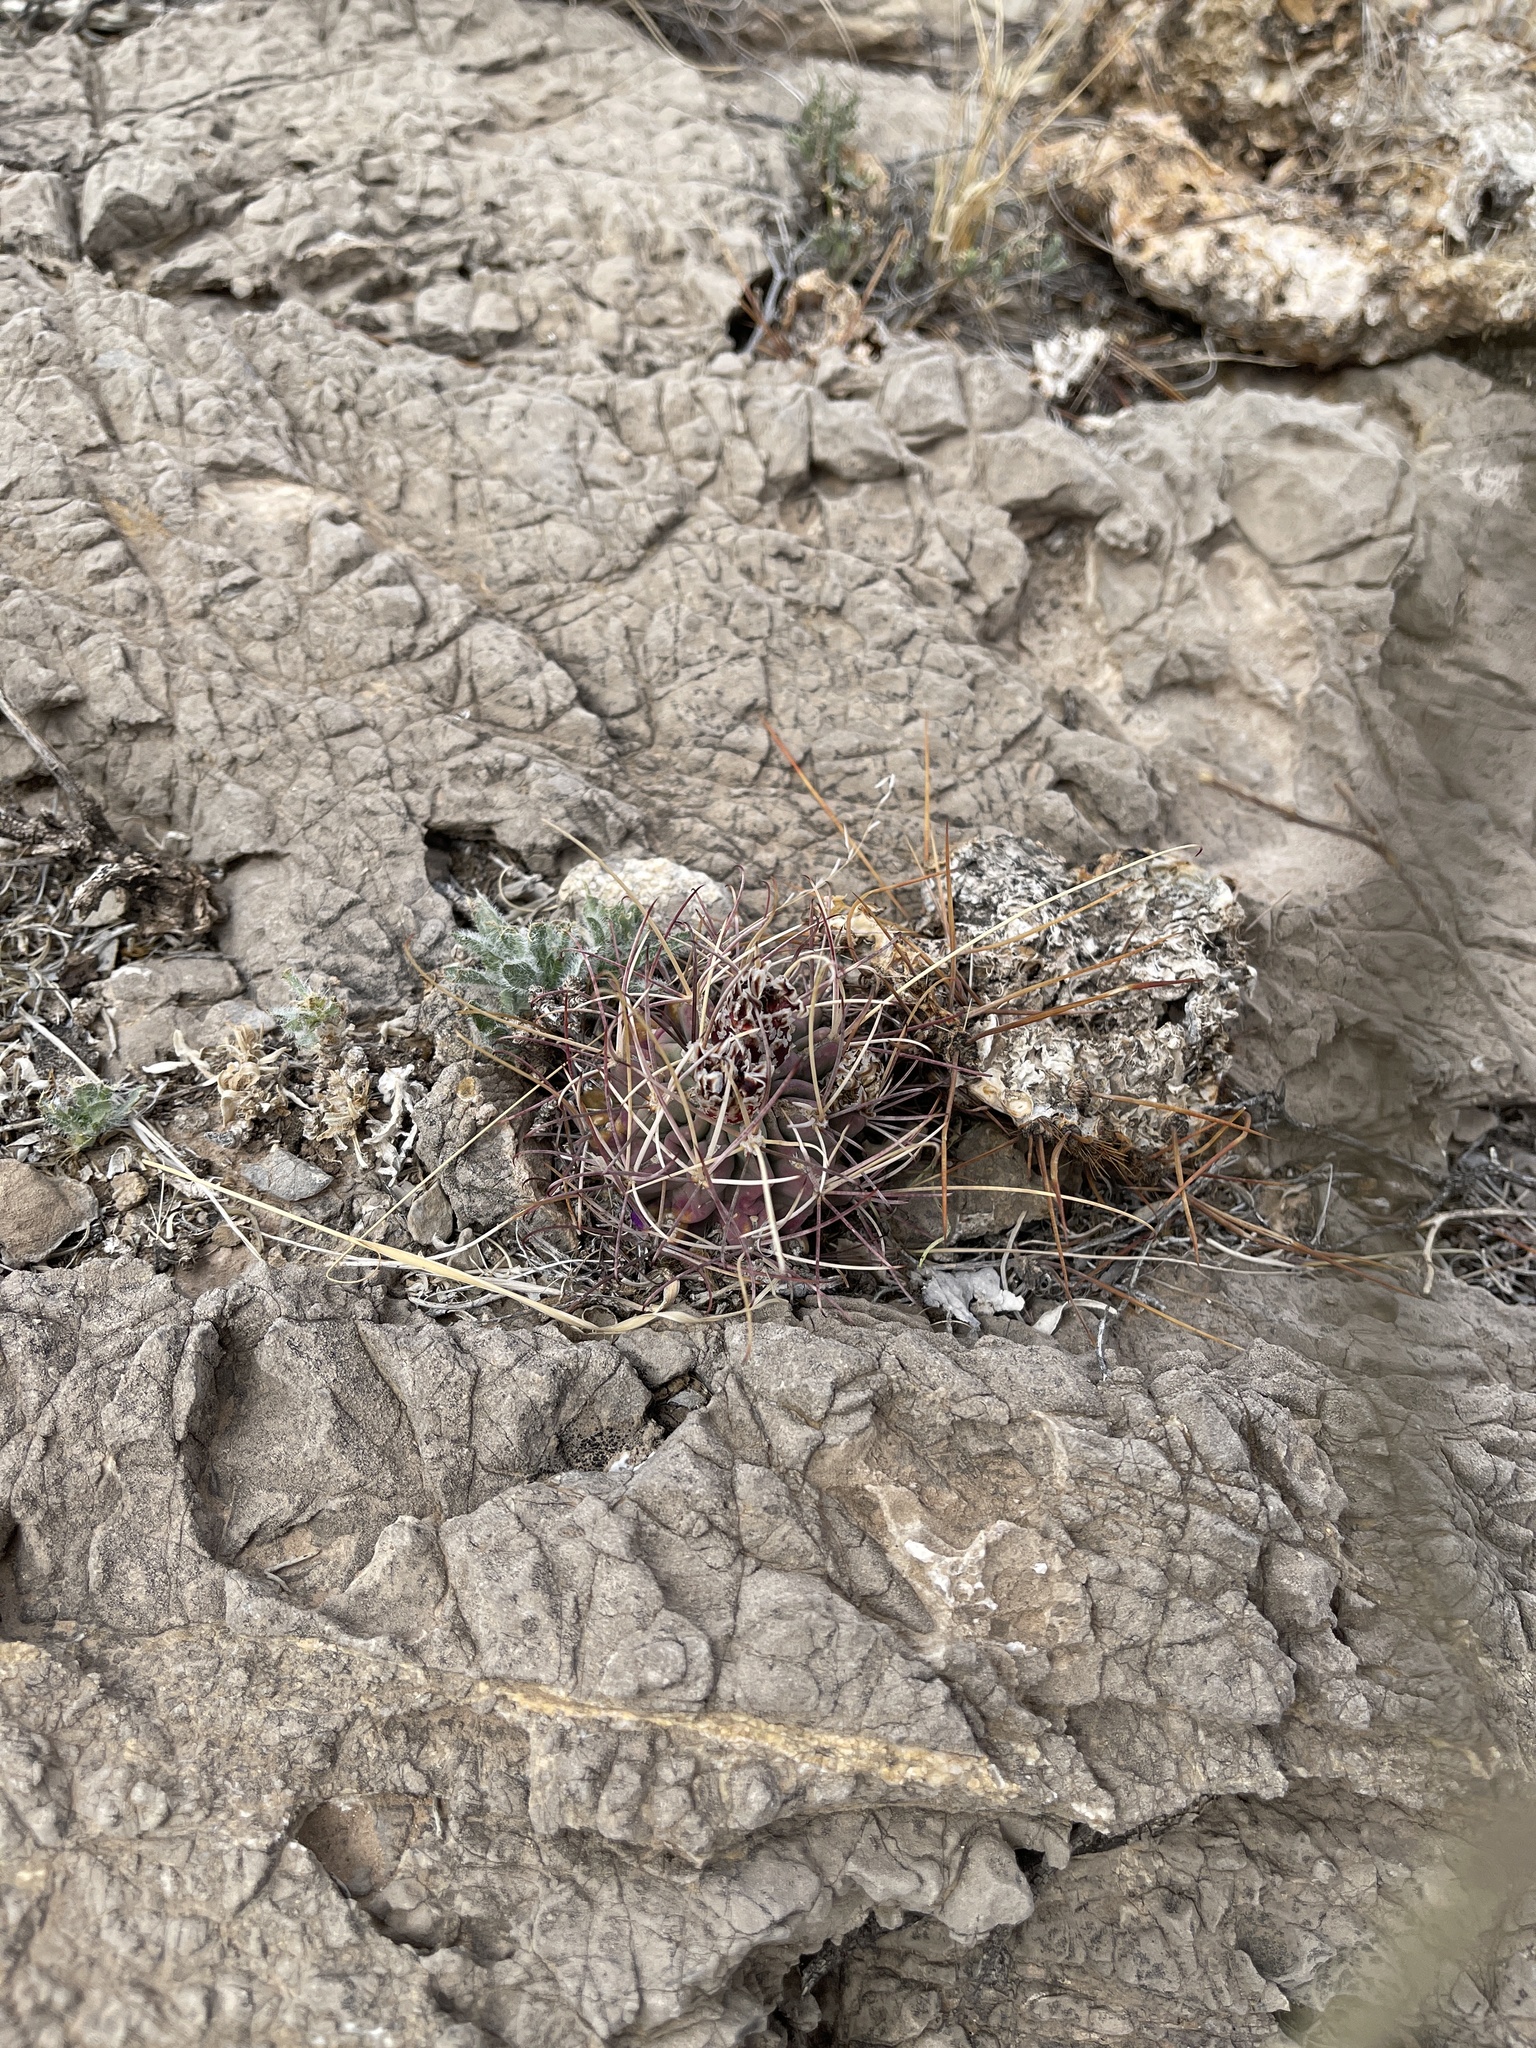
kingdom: Plantae
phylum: Tracheophyta
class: Magnoliopsida
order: Caryophyllales
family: Cactaceae
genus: Ferocactus
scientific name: Ferocactus uncinatus
